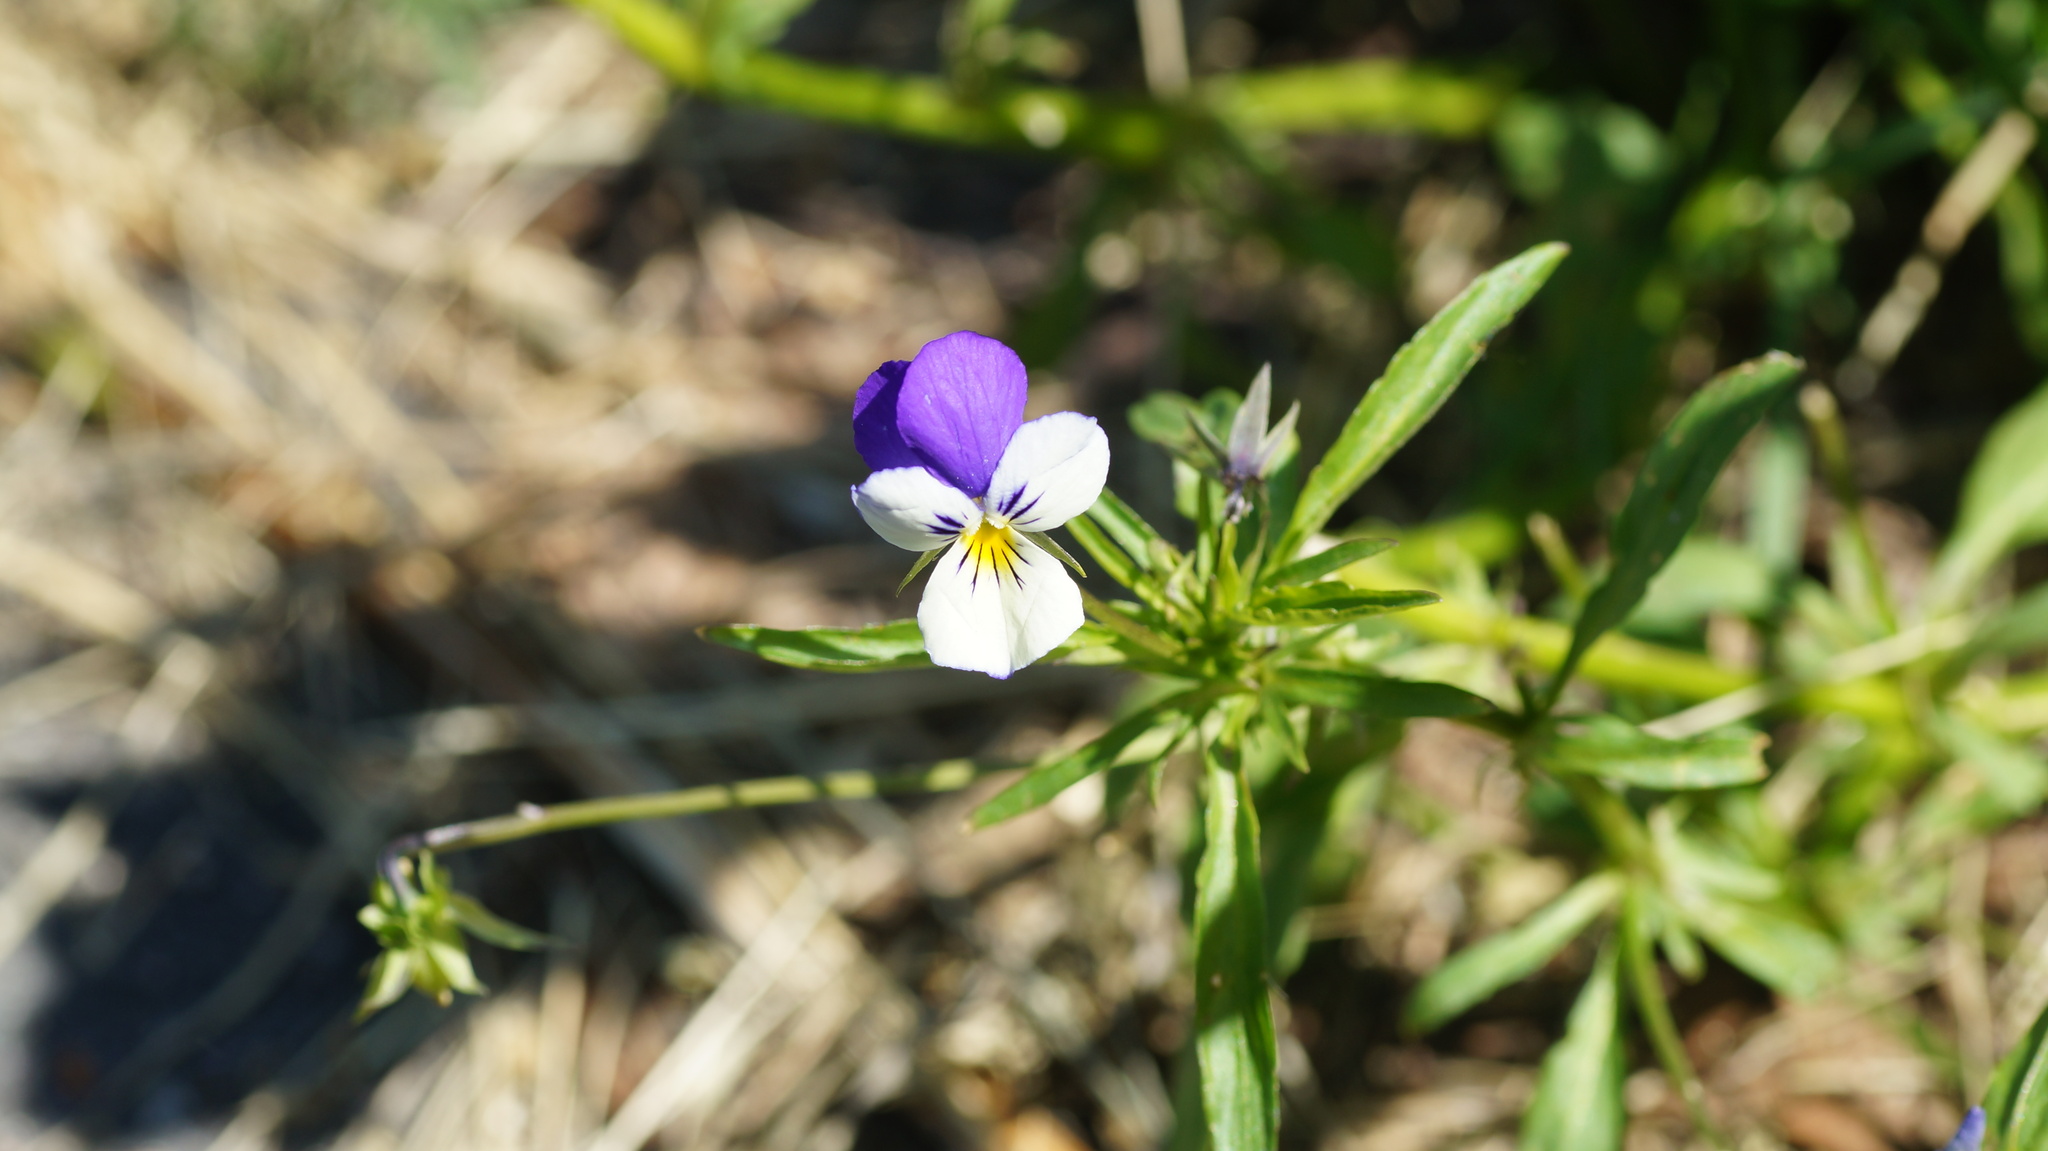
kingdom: Plantae
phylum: Tracheophyta
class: Magnoliopsida
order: Malpighiales
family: Violaceae
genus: Viola
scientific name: Viola tricolor
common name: Pansy
